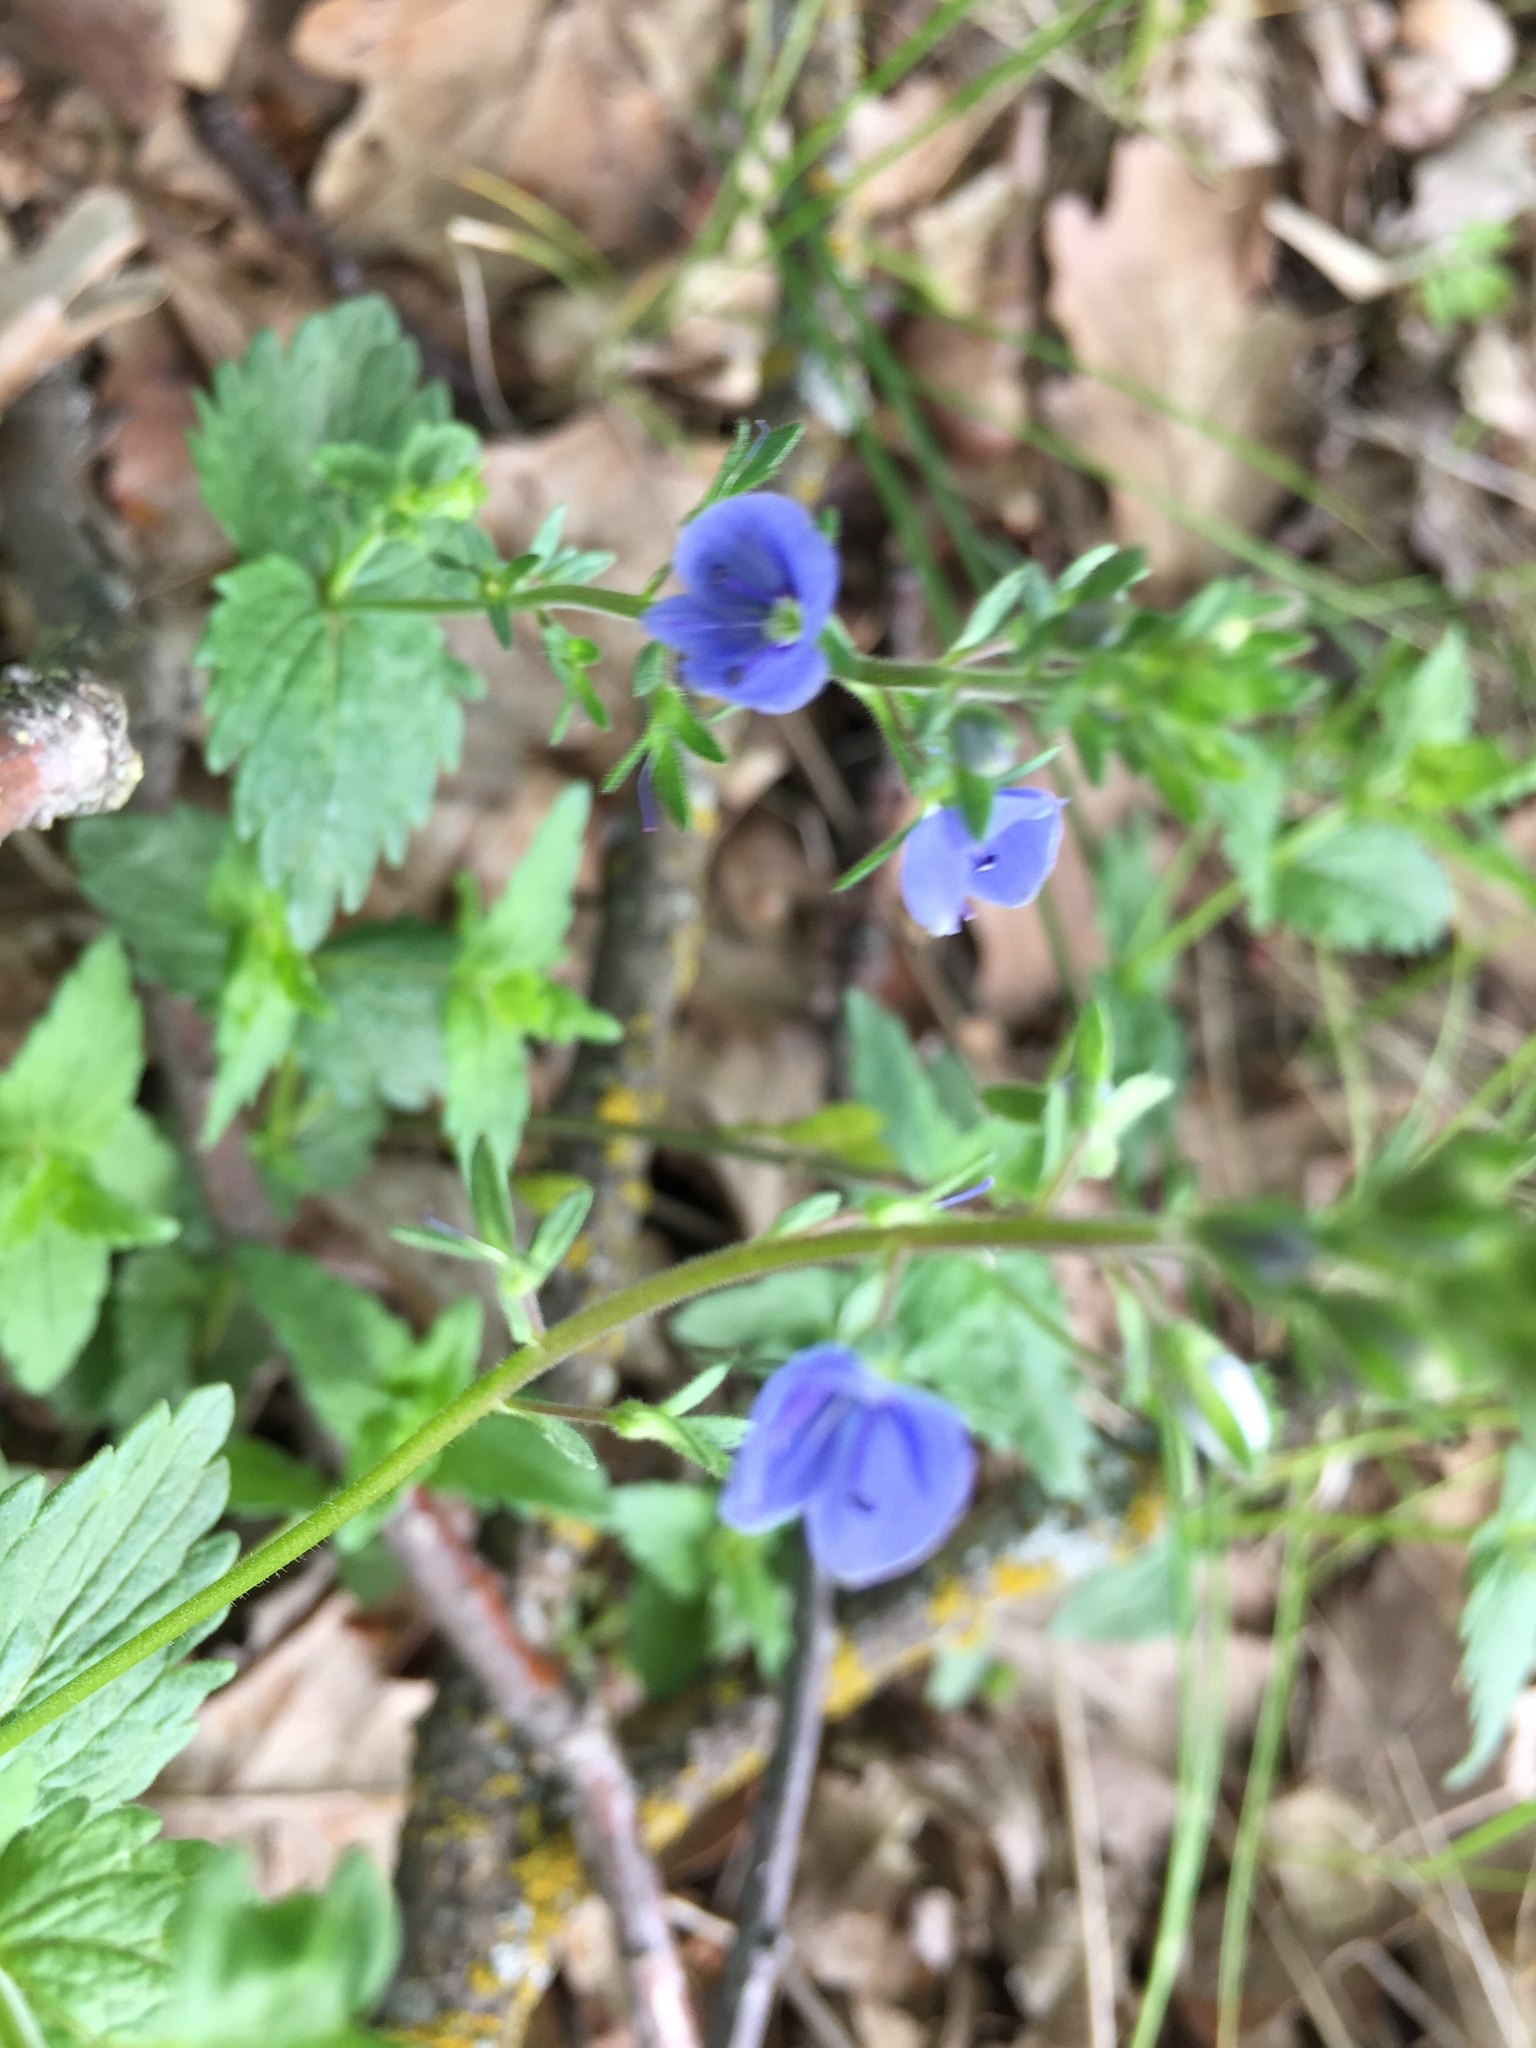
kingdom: Plantae
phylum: Tracheophyta
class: Magnoliopsida
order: Lamiales
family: Plantaginaceae
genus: Veronica
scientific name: Veronica chamaedrys
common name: Germander speedwell
